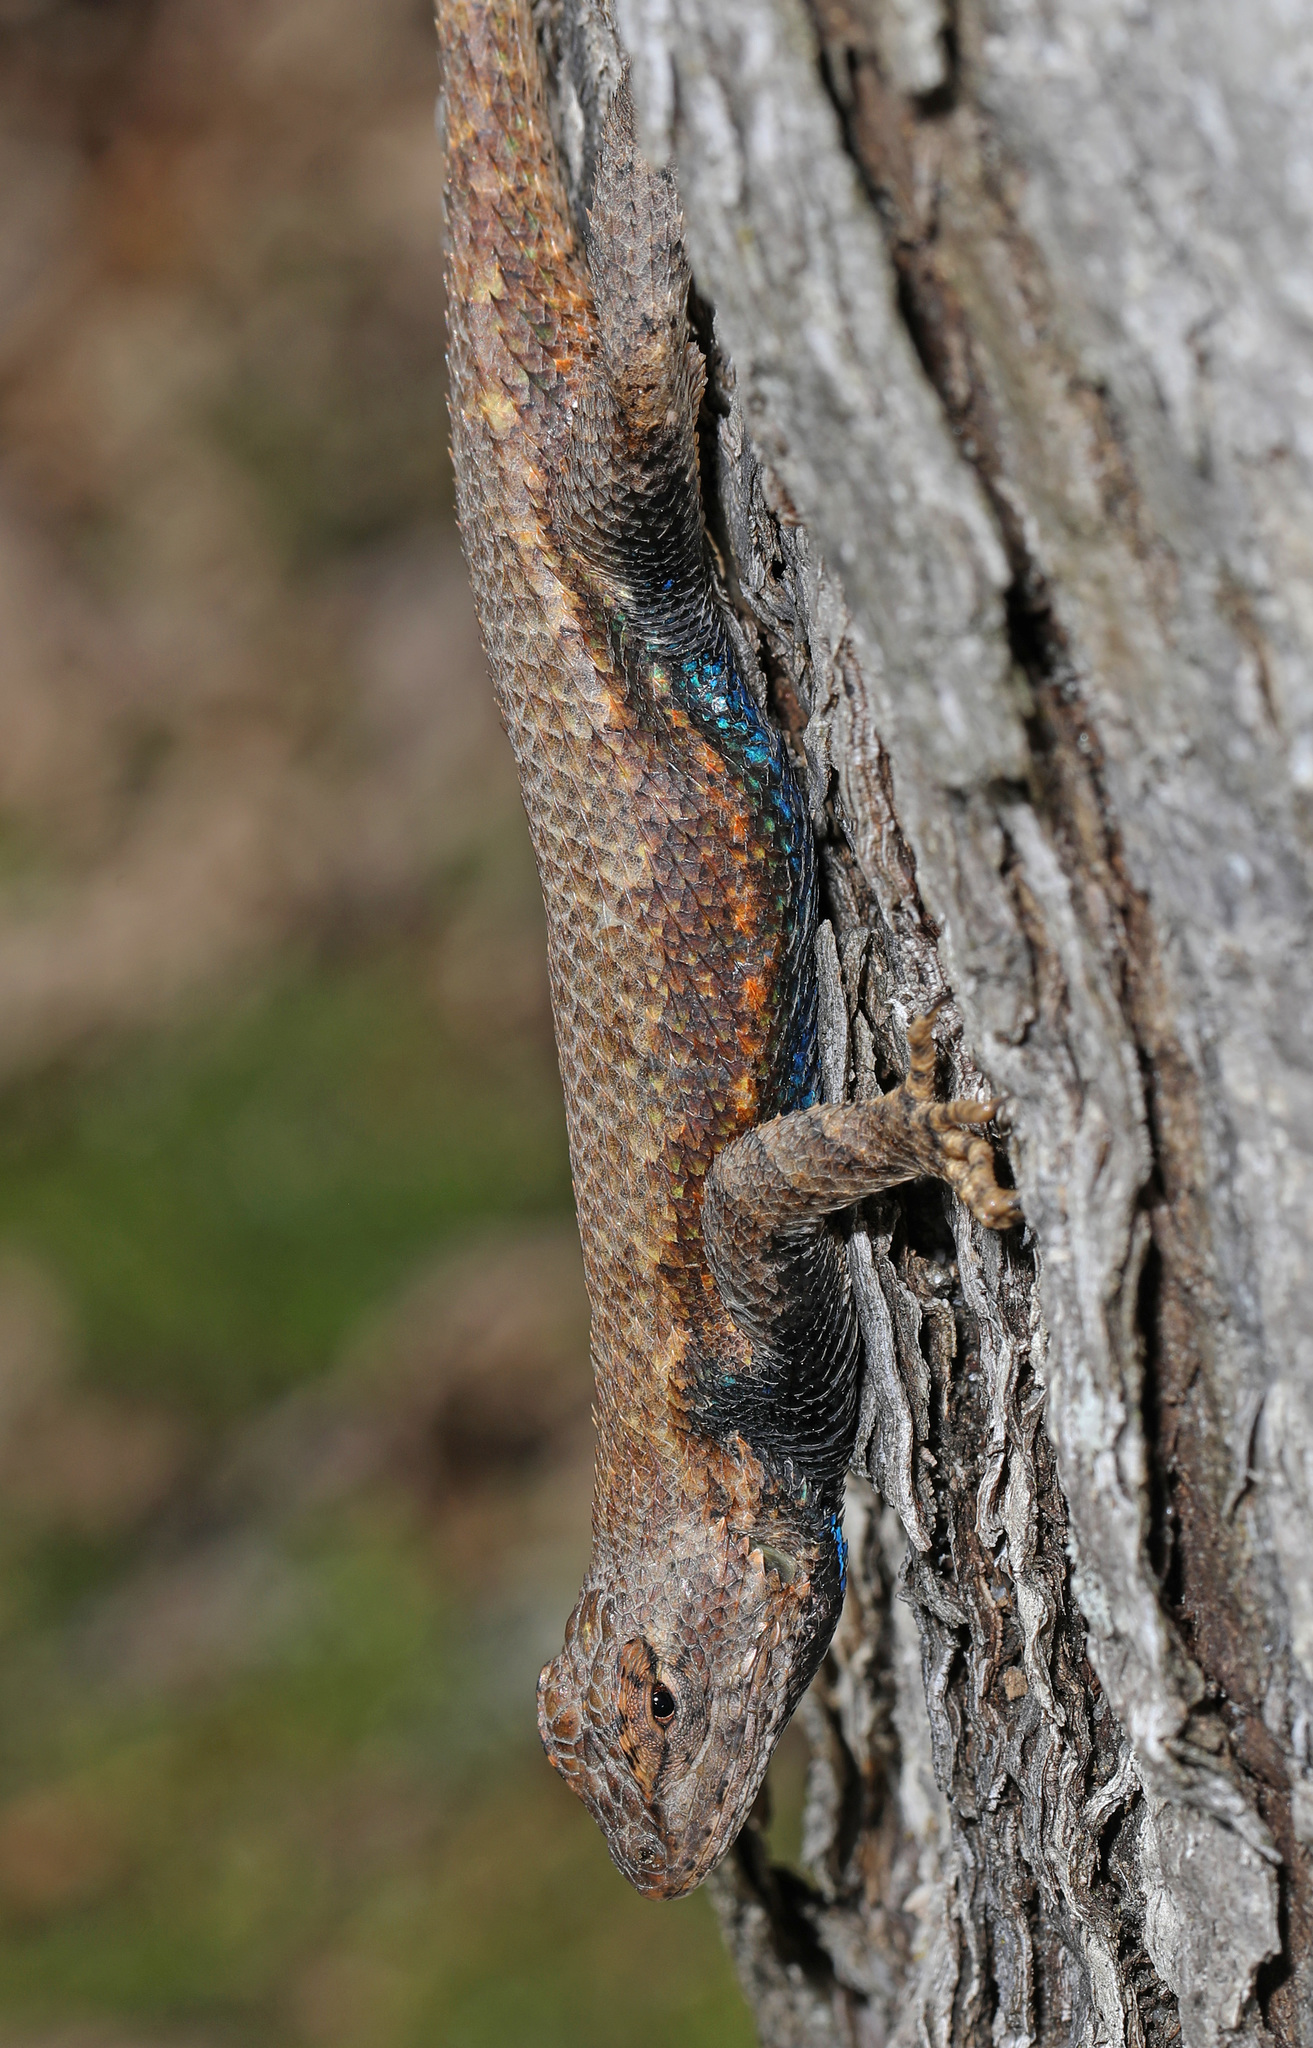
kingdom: Animalia
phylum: Chordata
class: Squamata
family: Phrynosomatidae
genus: Sceloporus
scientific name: Sceloporus undulatus
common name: Eastern fence lizard
